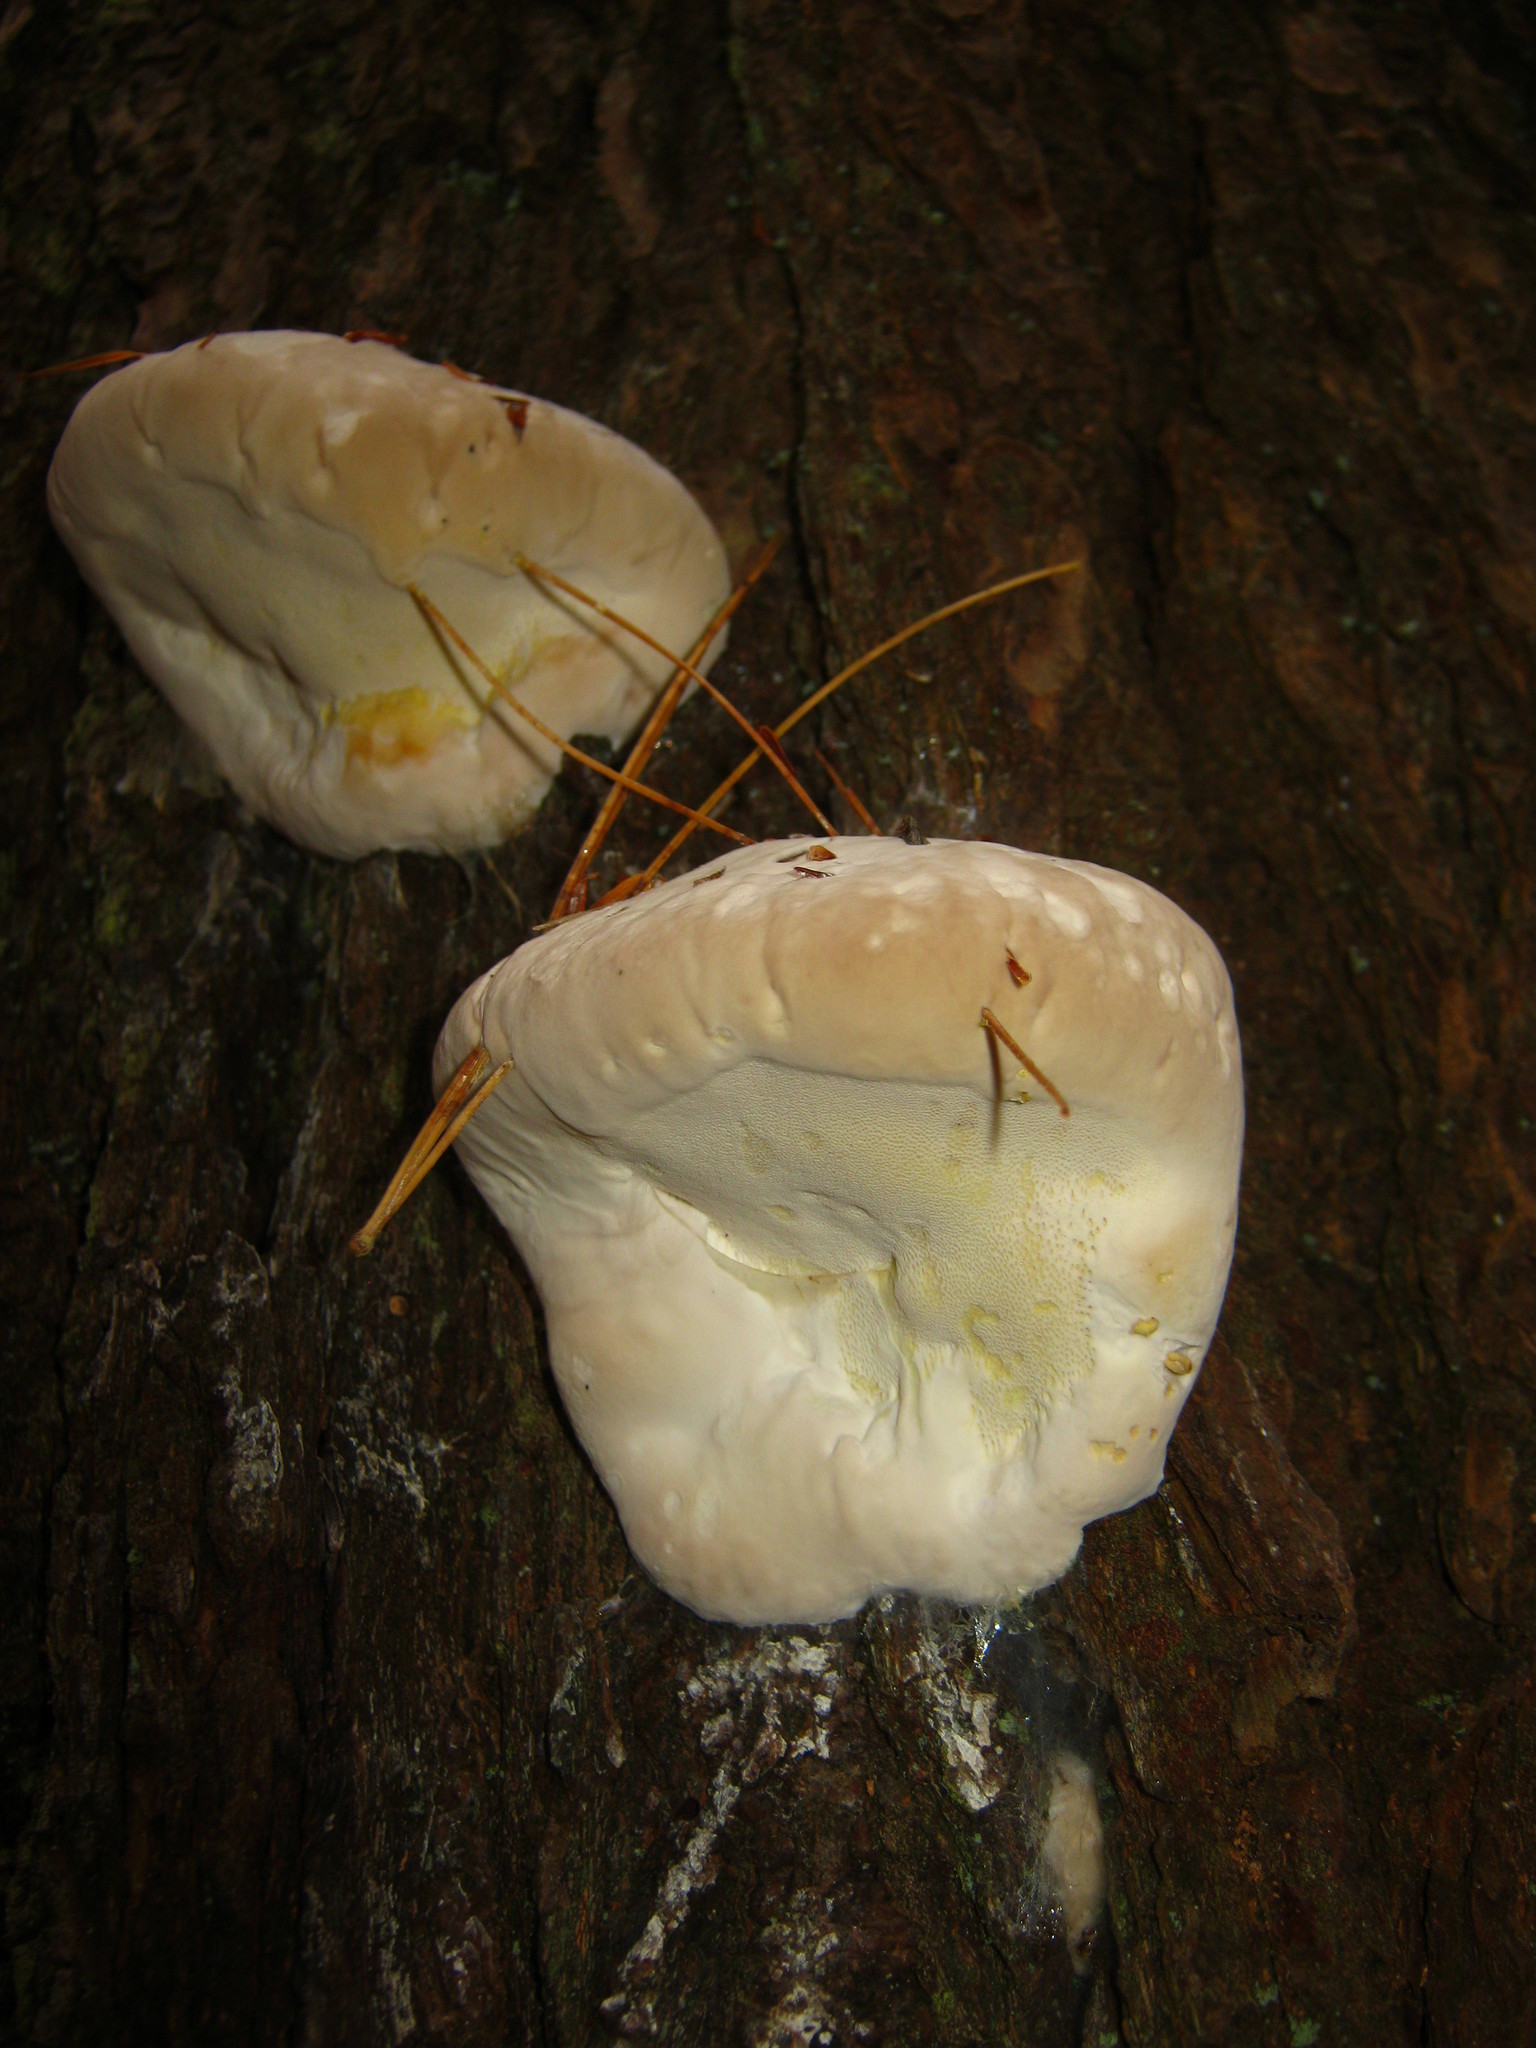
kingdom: Fungi
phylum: Basidiomycota
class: Agaricomycetes
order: Polyporales
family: Fomitopsidaceae
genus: Fomitopsis
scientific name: Fomitopsis mounceae
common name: Northern red belt
